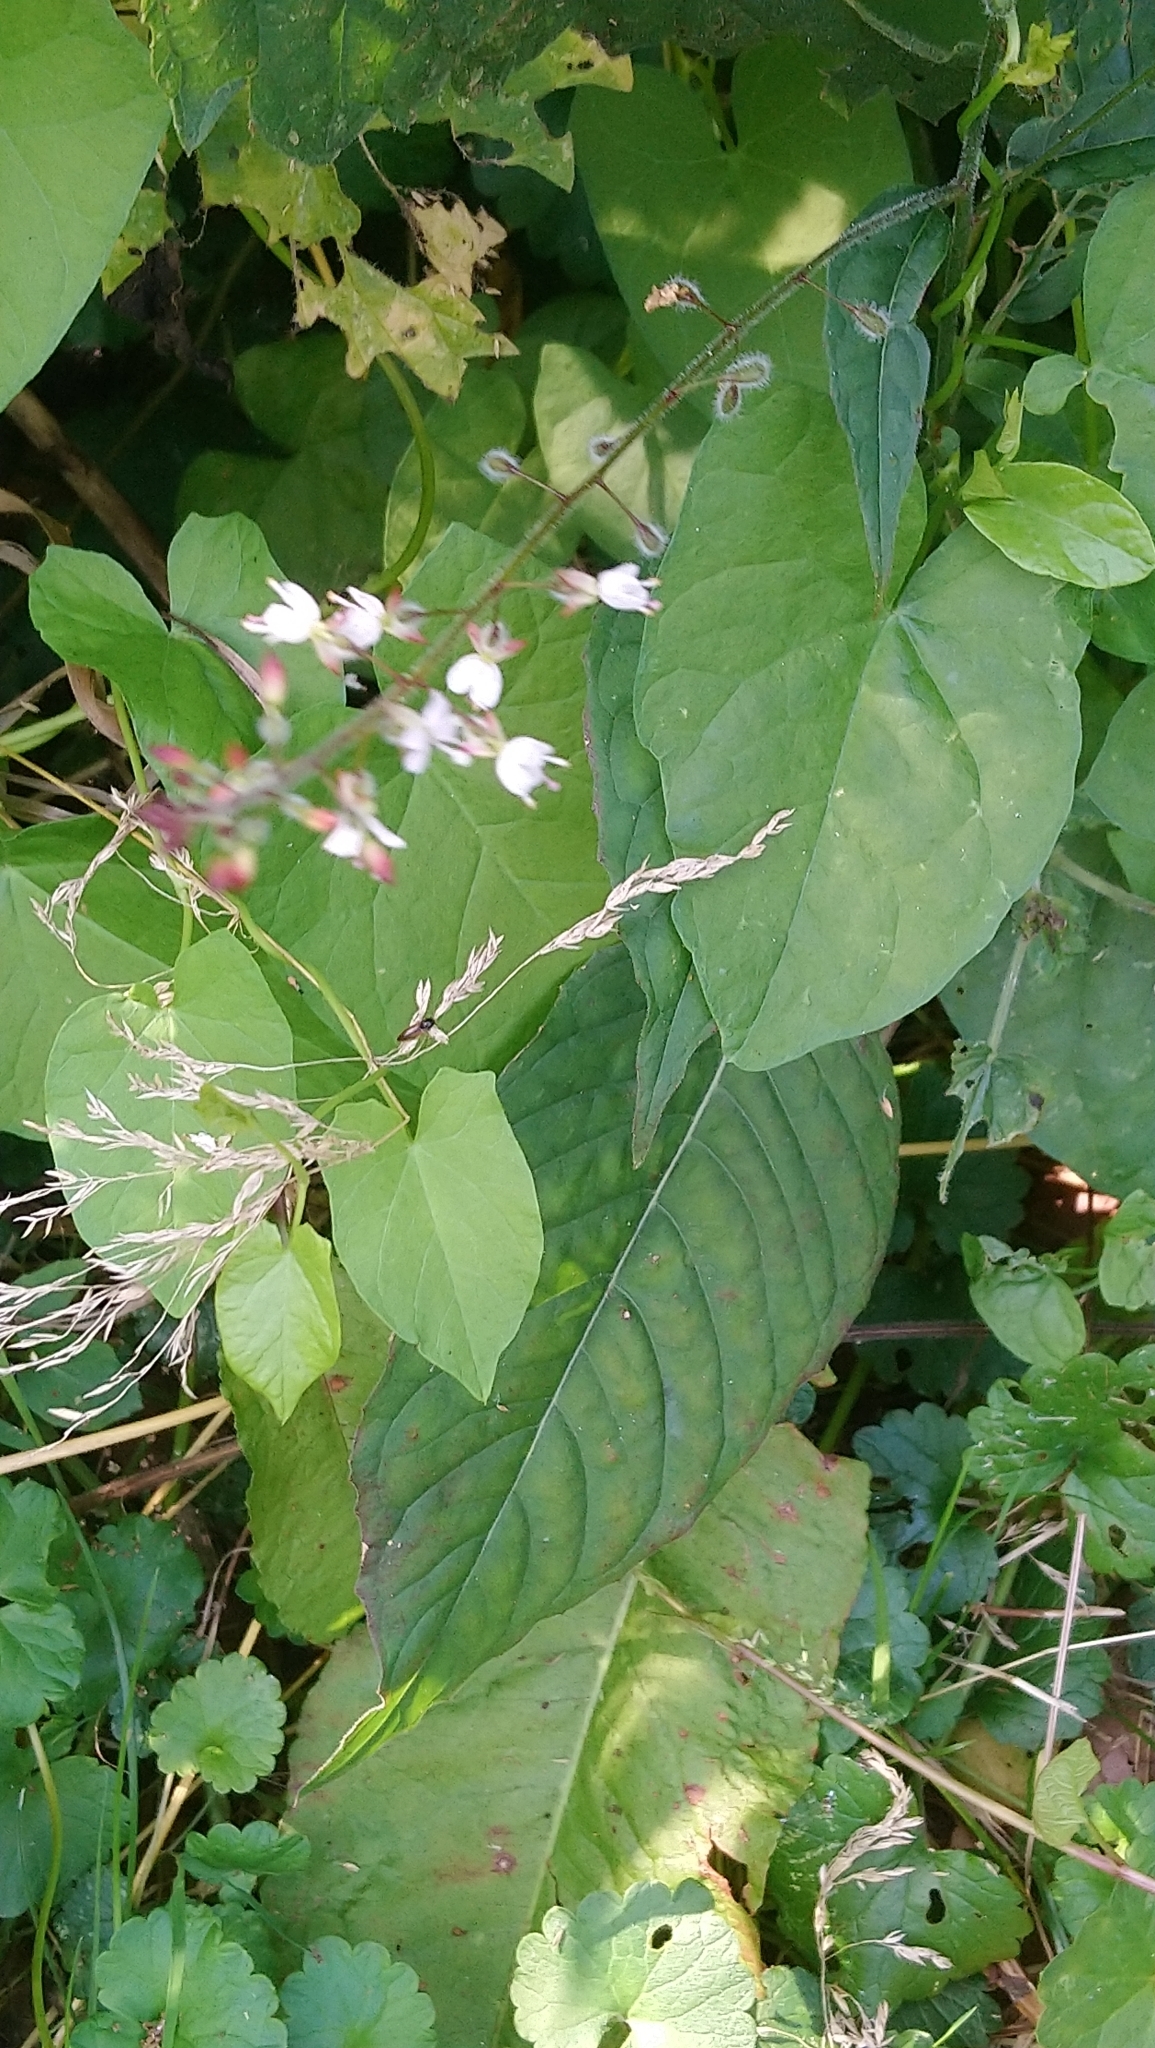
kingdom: Plantae
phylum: Tracheophyta
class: Magnoliopsida
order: Myrtales
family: Onagraceae
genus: Circaea
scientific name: Circaea lutetiana
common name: Enchanter's-nightshade
